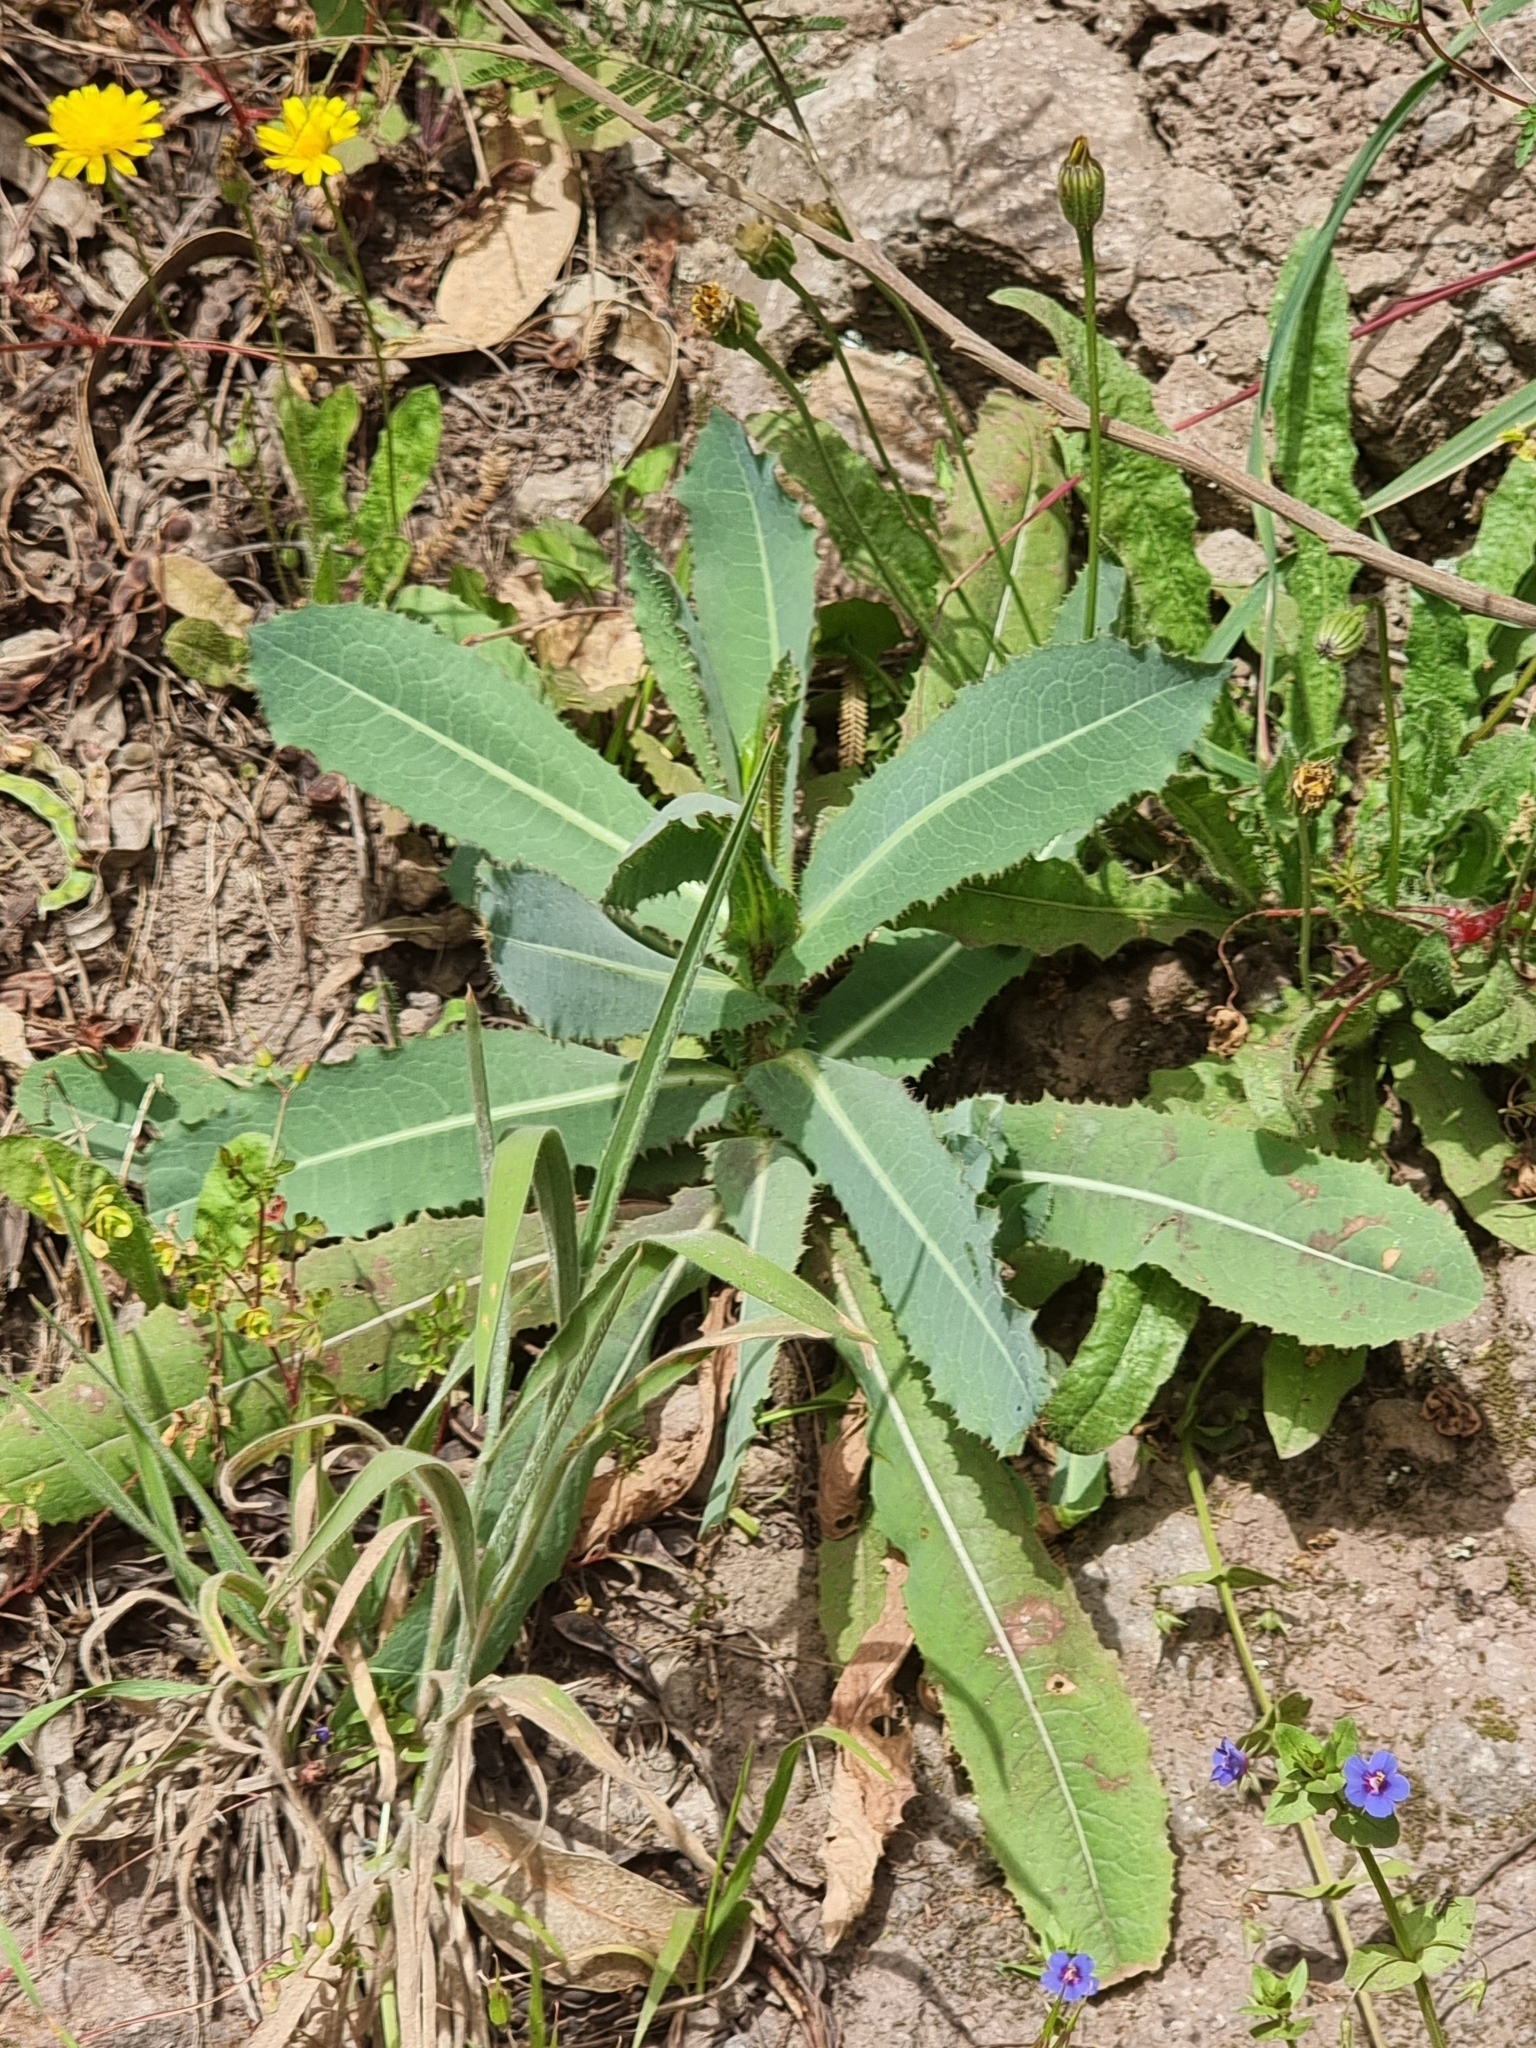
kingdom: Plantae
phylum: Tracheophyta
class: Magnoliopsida
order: Asterales
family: Asteraceae
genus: Lactuca
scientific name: Lactuca serriola
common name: Prickly lettuce
